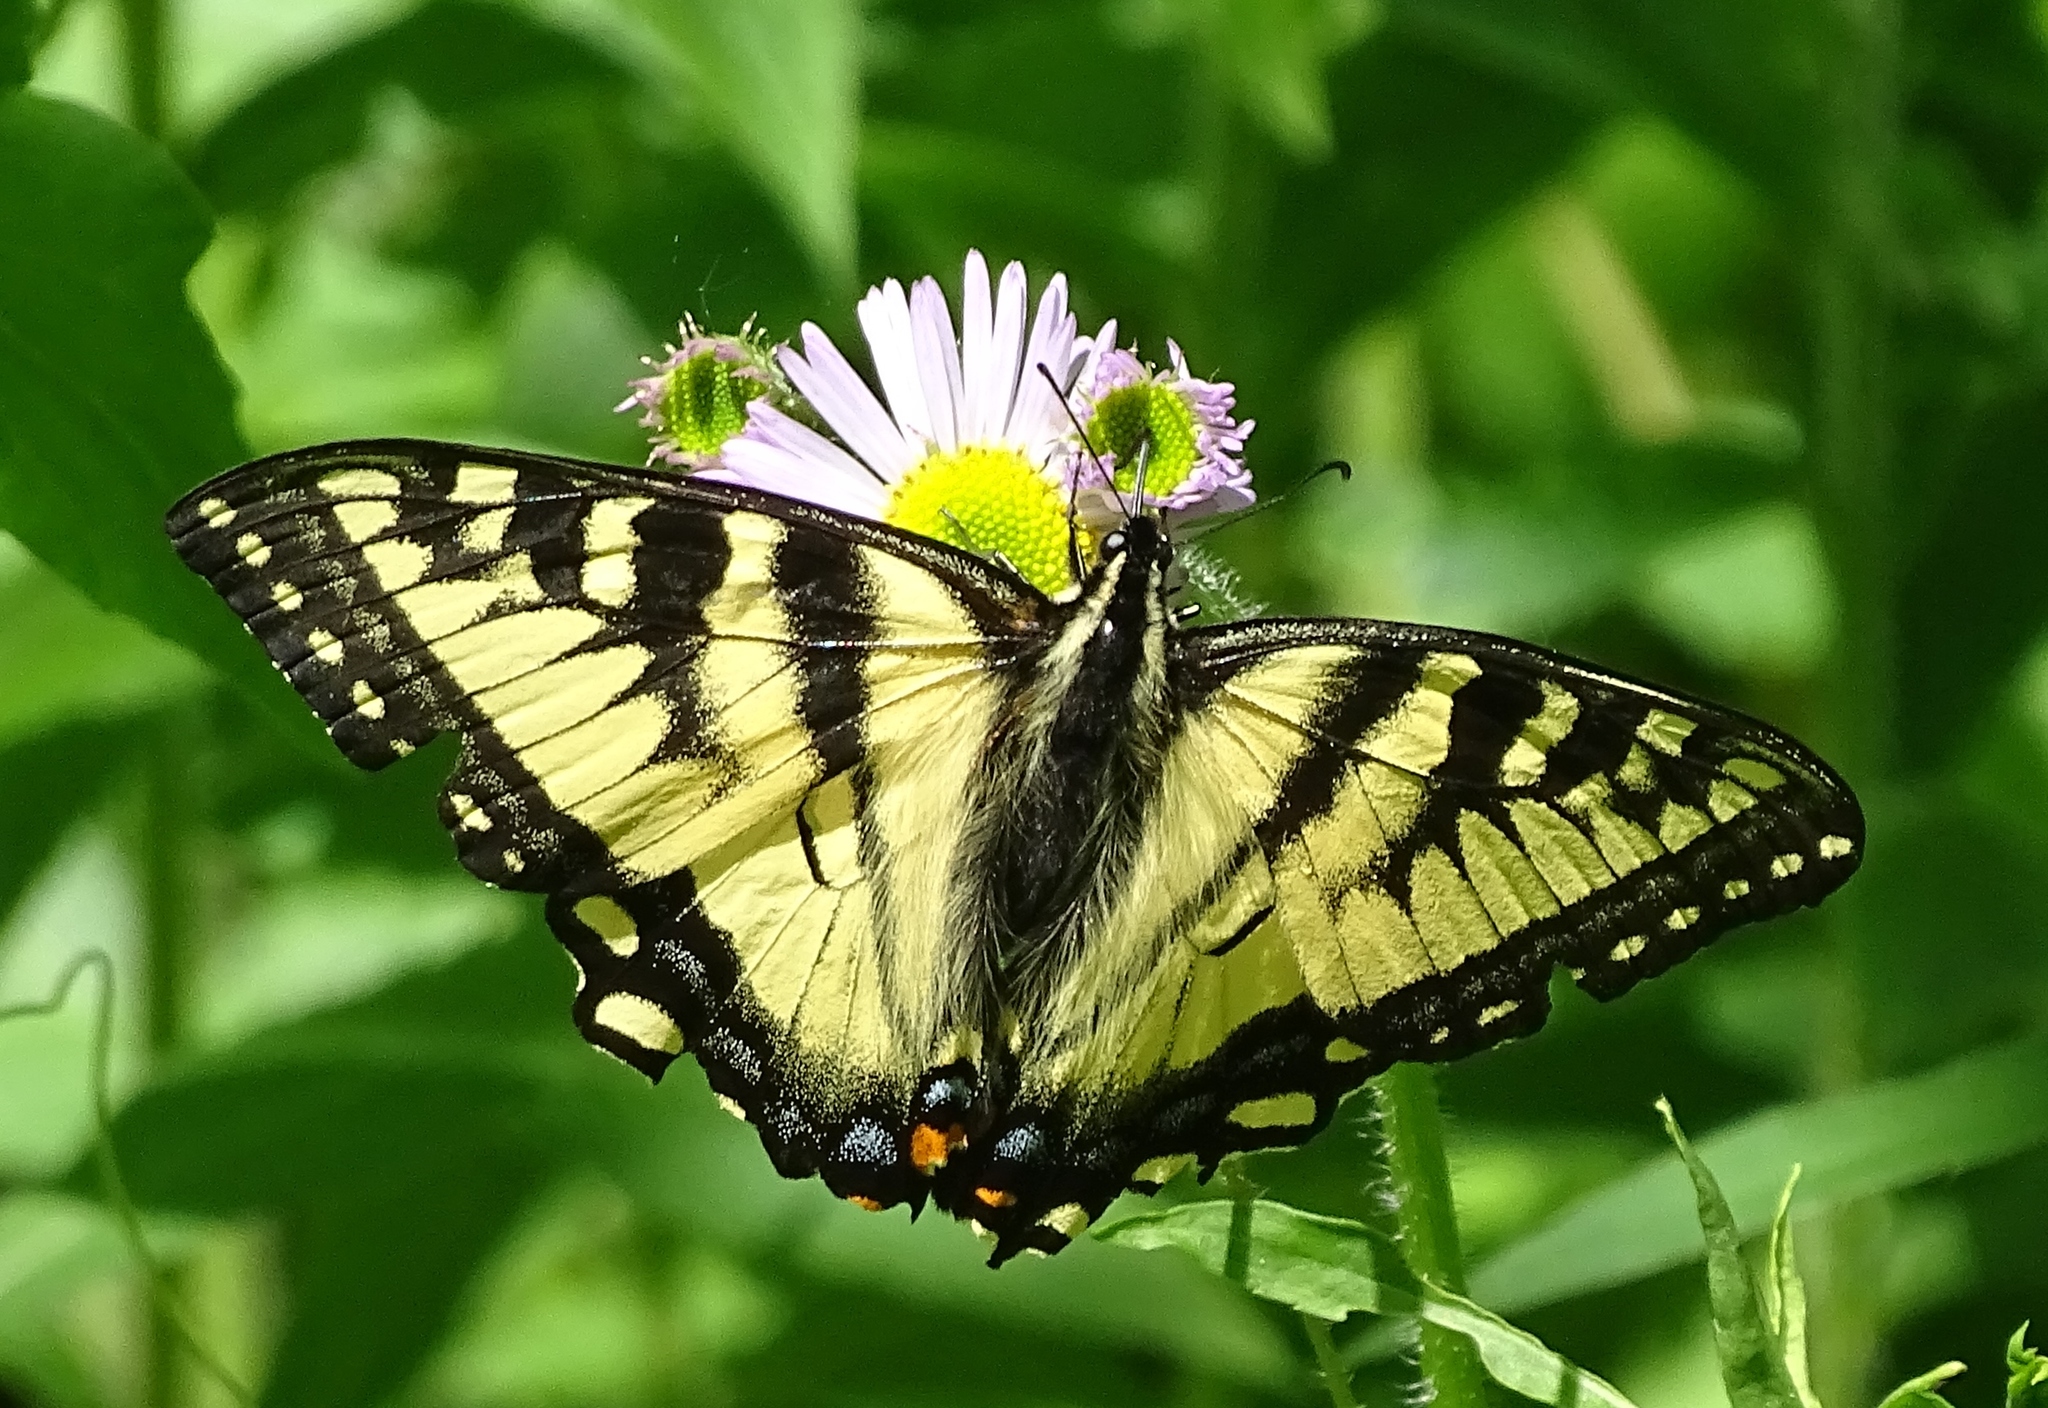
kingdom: Animalia
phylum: Arthropoda
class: Insecta
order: Lepidoptera
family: Papilionidae
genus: Papilio
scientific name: Papilio canadensis
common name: Canadian tiger swallowtail
